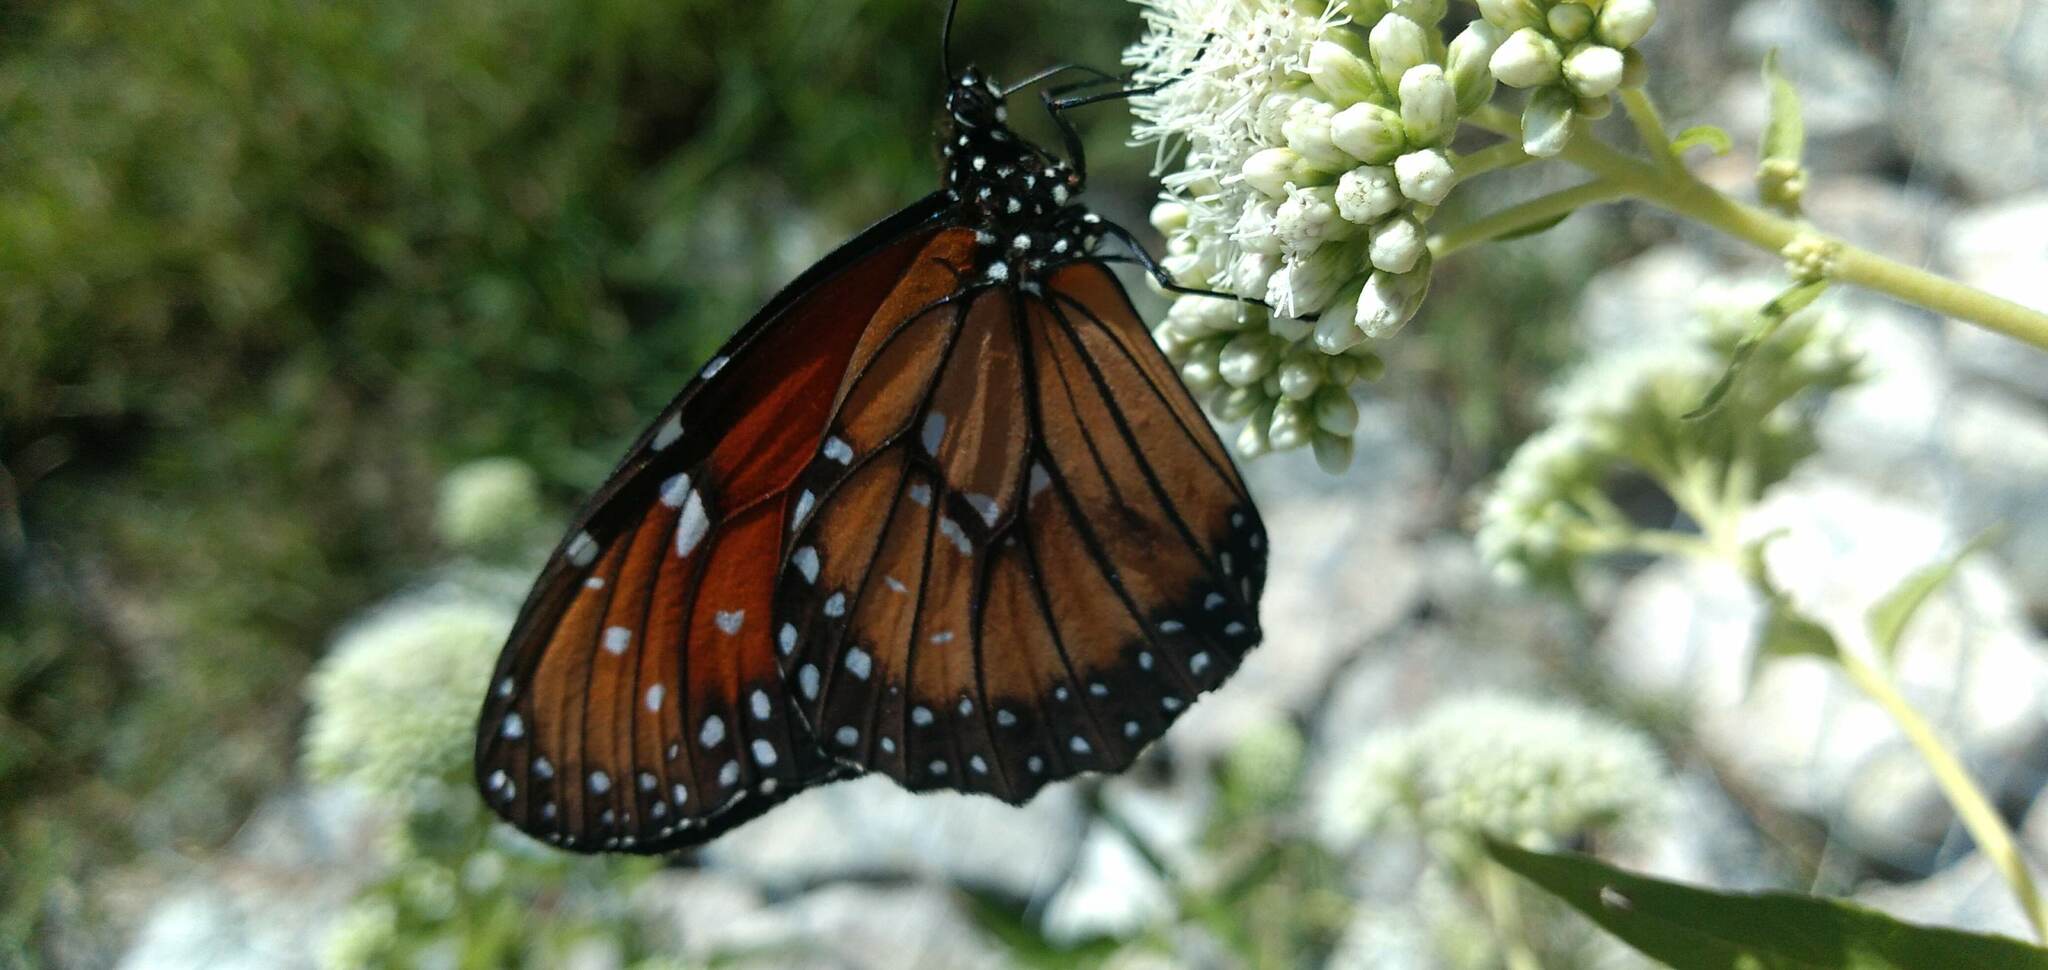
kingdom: Animalia
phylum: Arthropoda
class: Insecta
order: Lepidoptera
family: Nymphalidae
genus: Danaus
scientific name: Danaus erippus
